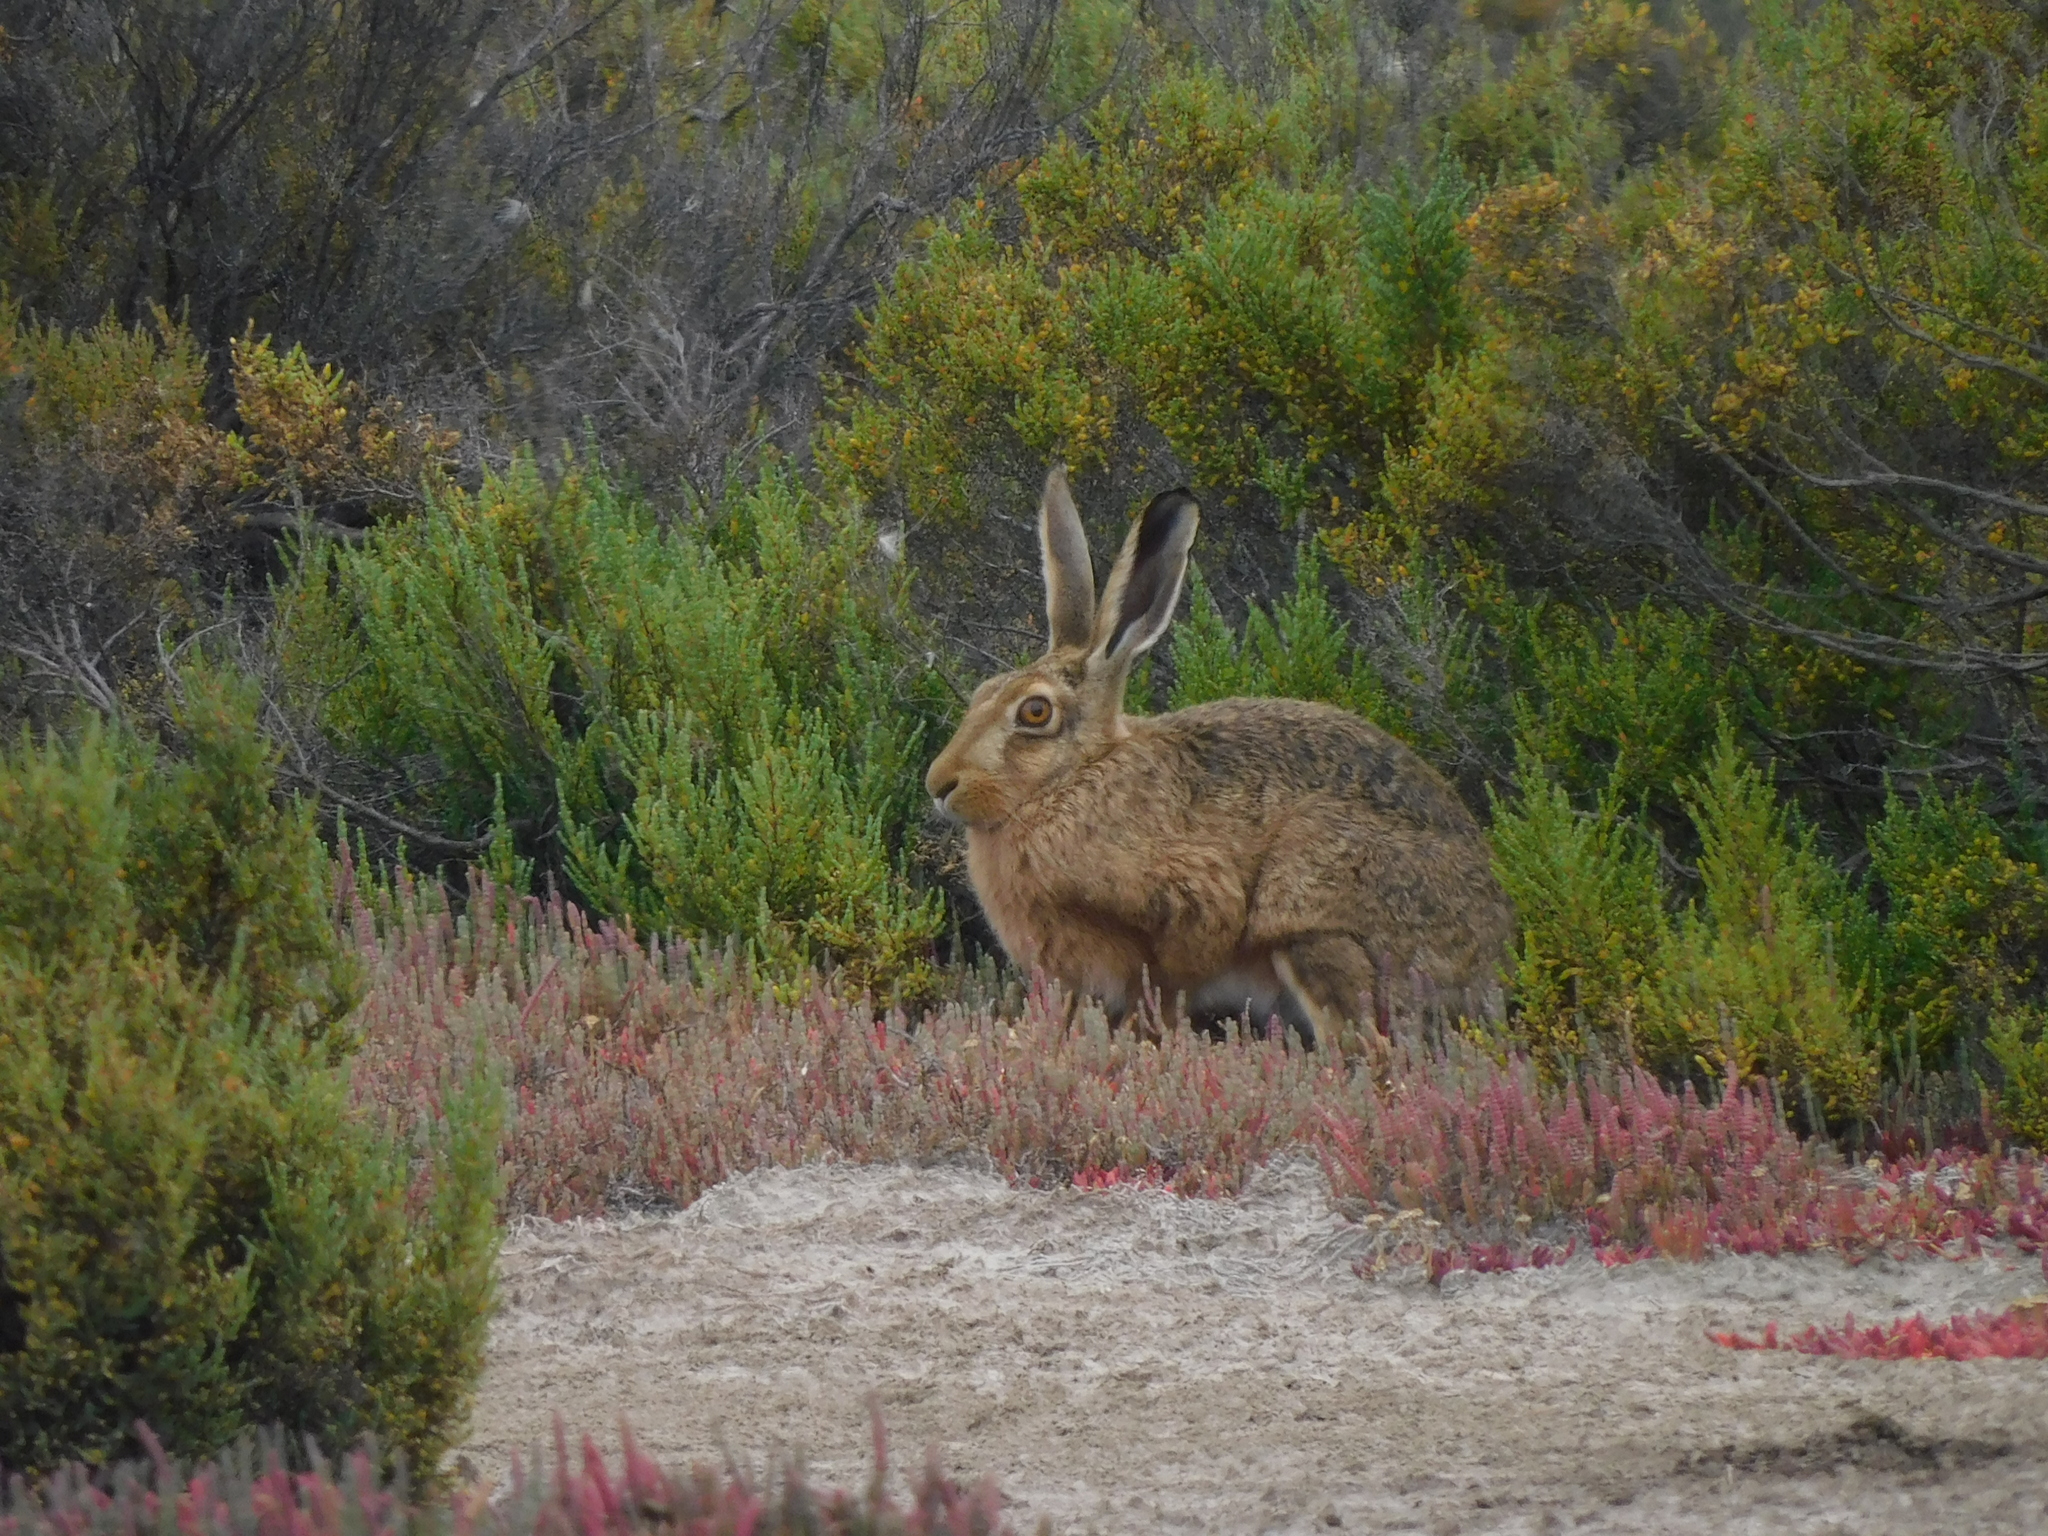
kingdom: Animalia
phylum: Chordata
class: Mammalia
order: Lagomorpha
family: Leporidae
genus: Lepus
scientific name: Lepus europaeus
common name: European hare
